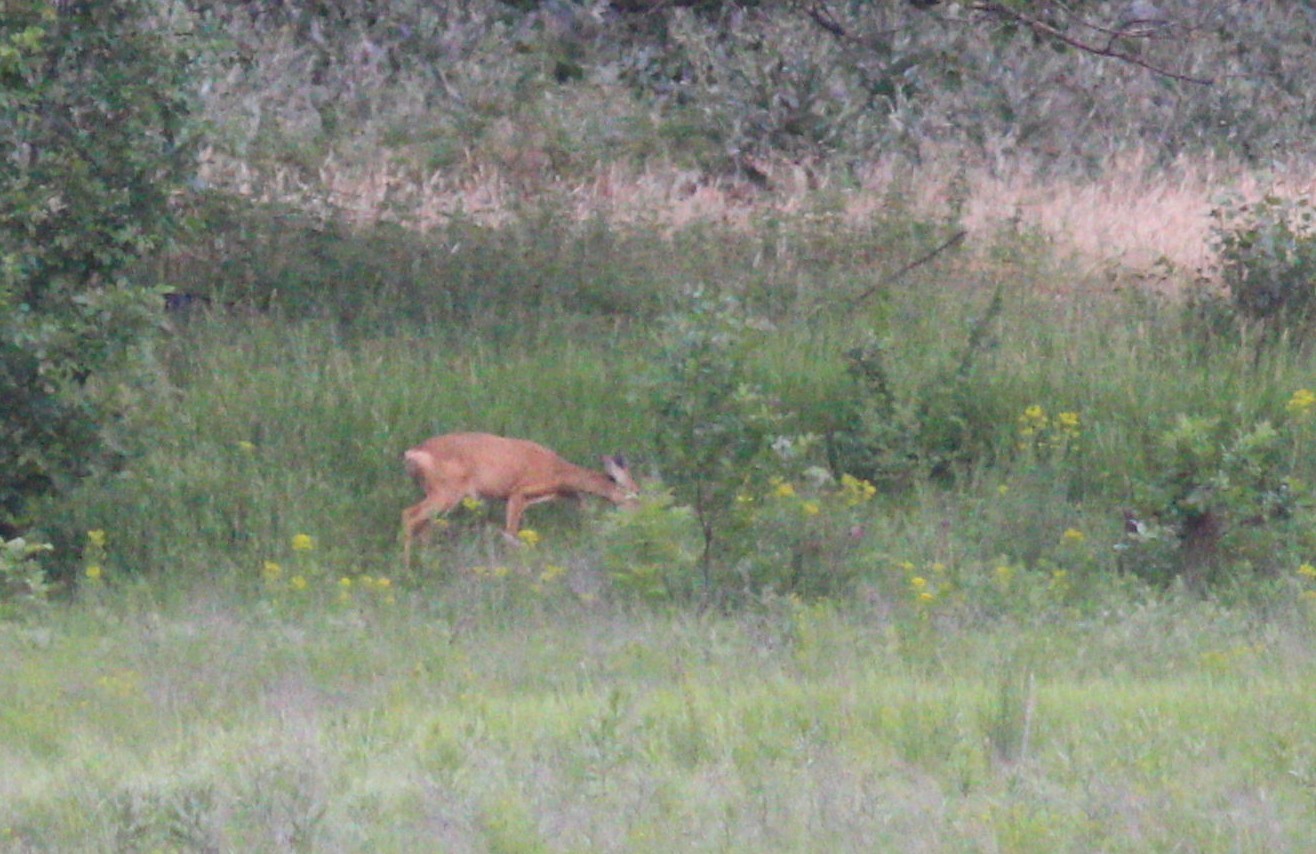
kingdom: Animalia
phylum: Chordata
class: Mammalia
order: Artiodactyla
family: Cervidae
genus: Capreolus
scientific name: Capreolus pygargus
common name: Siberian roe
